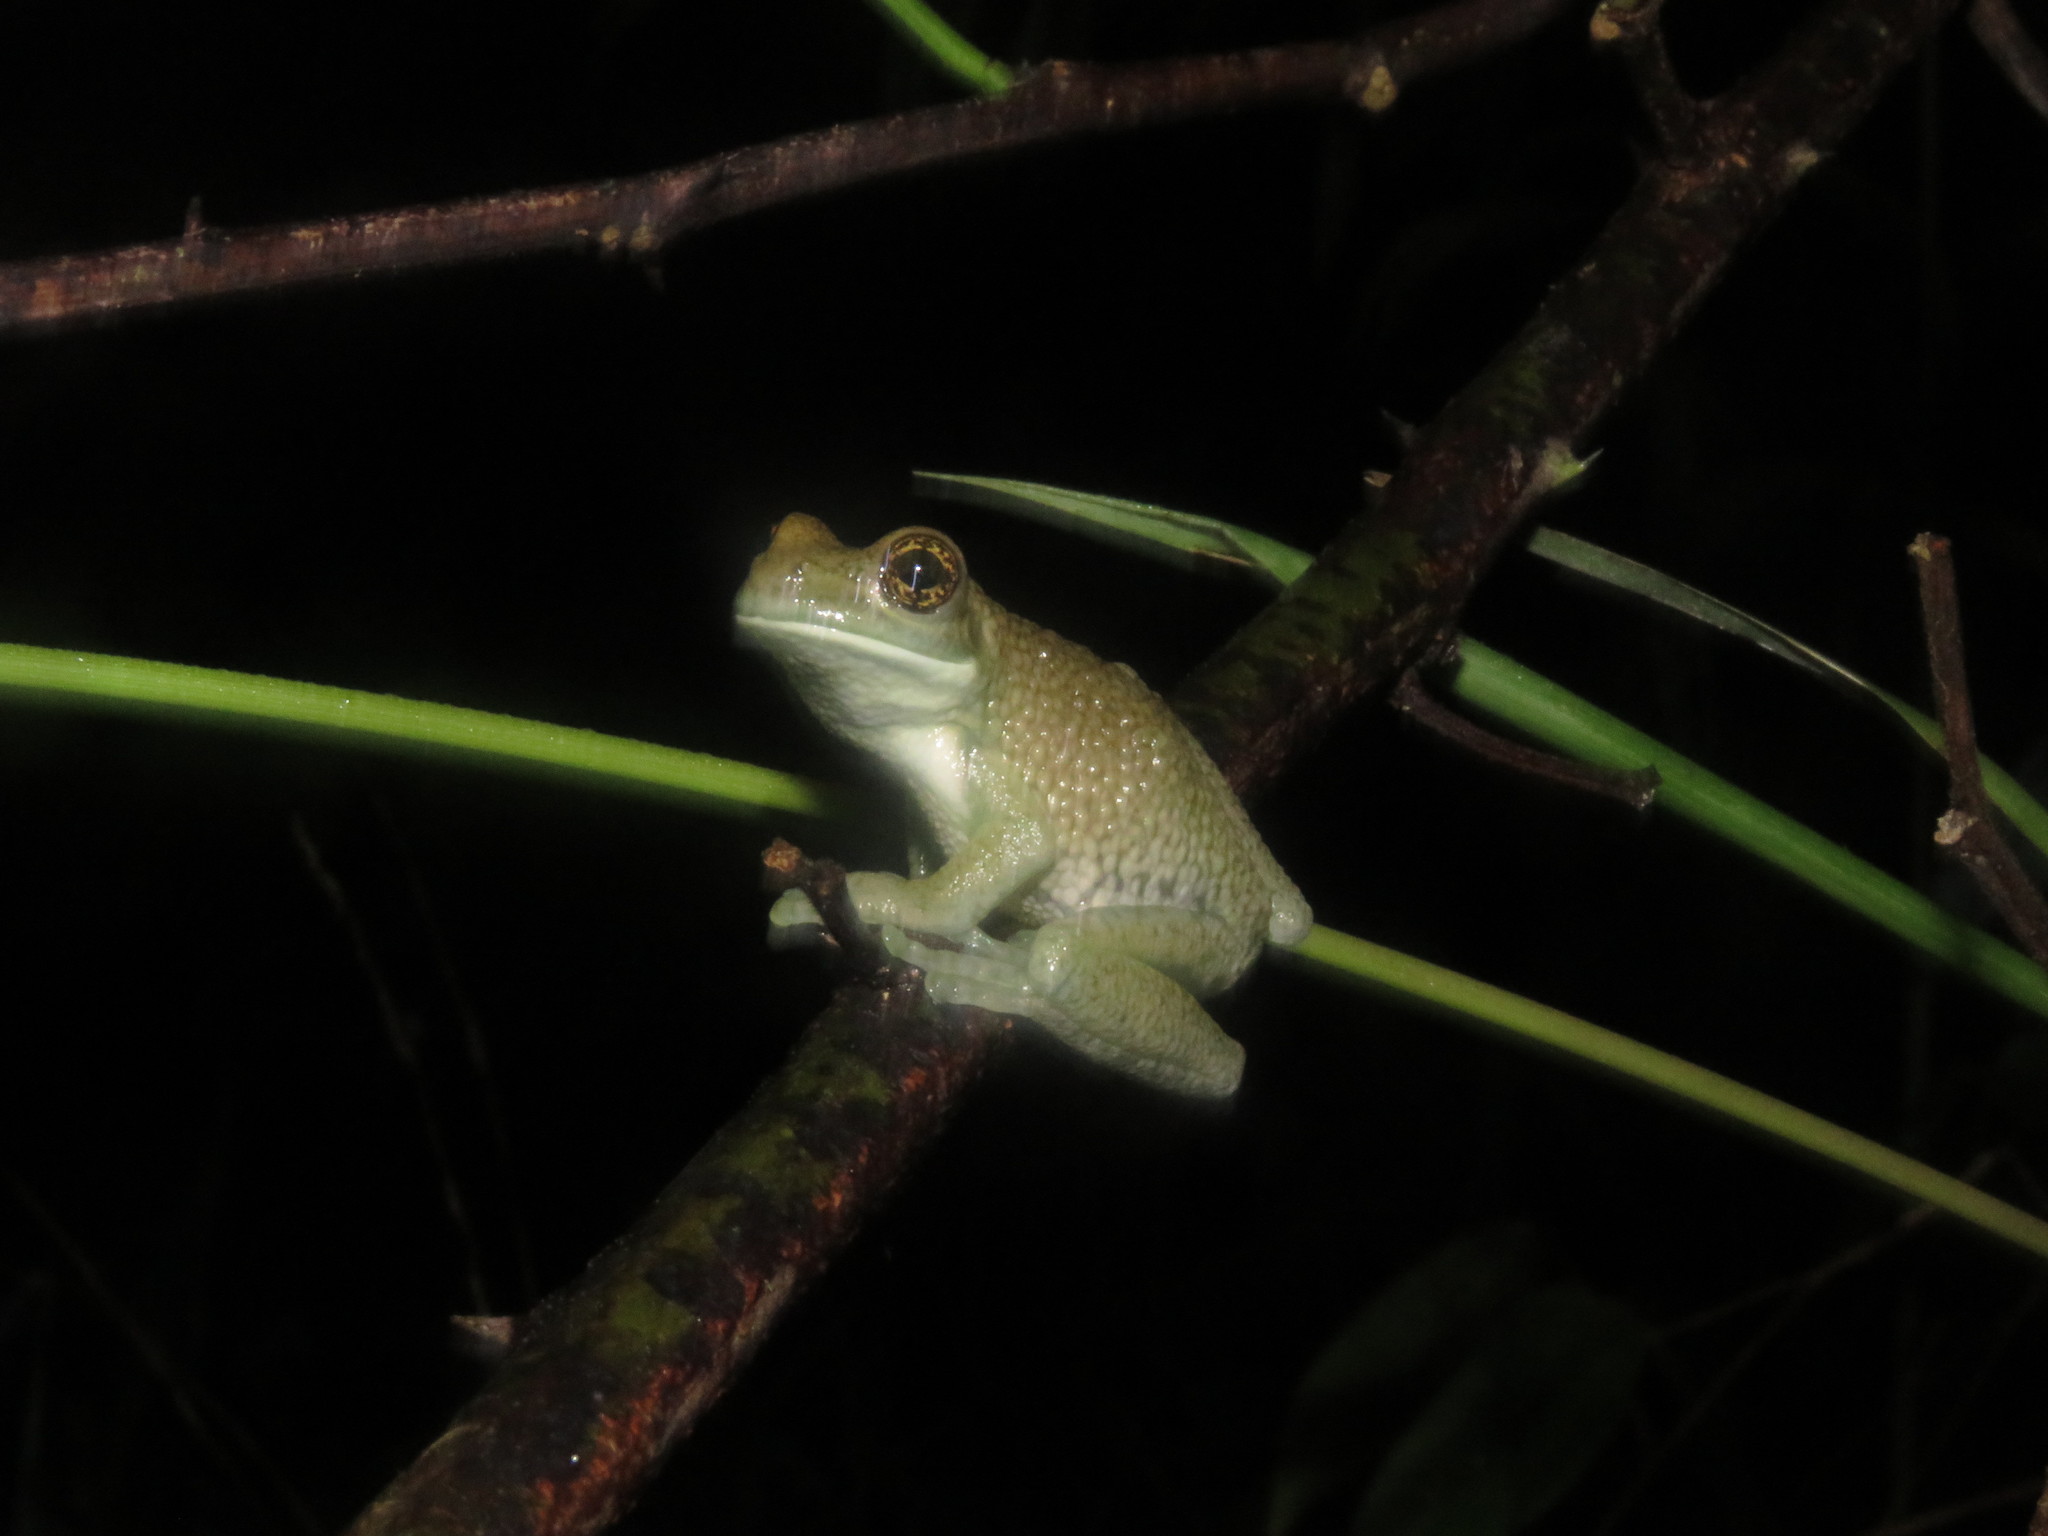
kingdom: Animalia
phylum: Chordata
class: Amphibia
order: Anura
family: Hylidae
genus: Trachycephalus
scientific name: Trachycephalus typhonius
